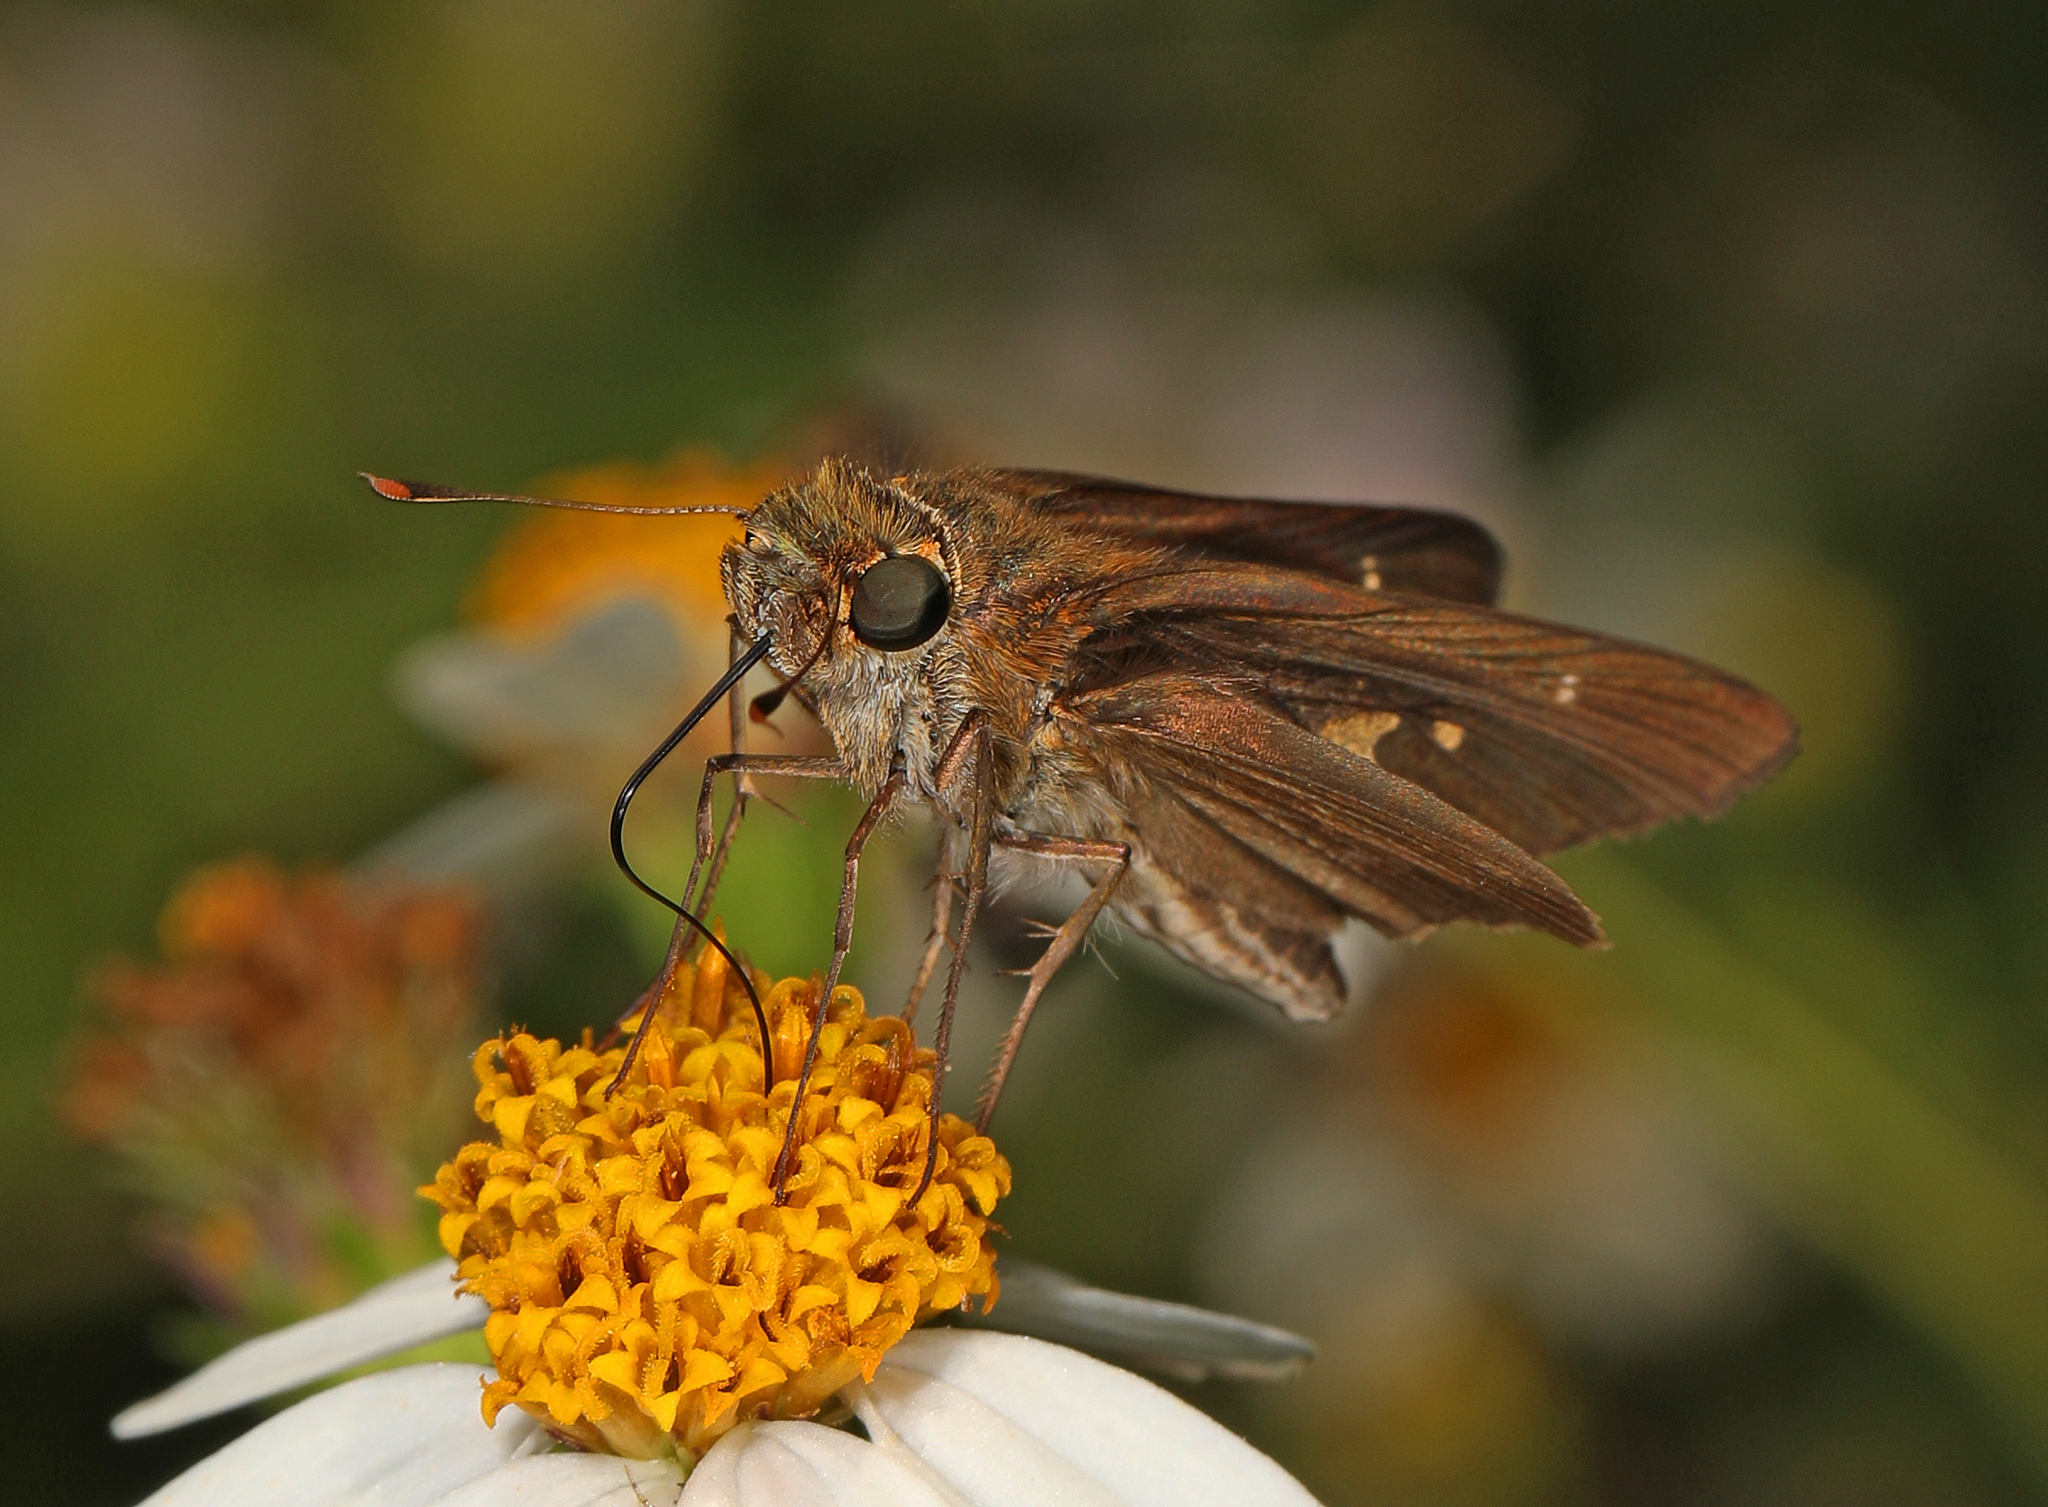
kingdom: Animalia
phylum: Arthropoda
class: Insecta
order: Lepidoptera
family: Hesperiidae
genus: Panoquina
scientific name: Panoquina ocola
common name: Ocola skipper
